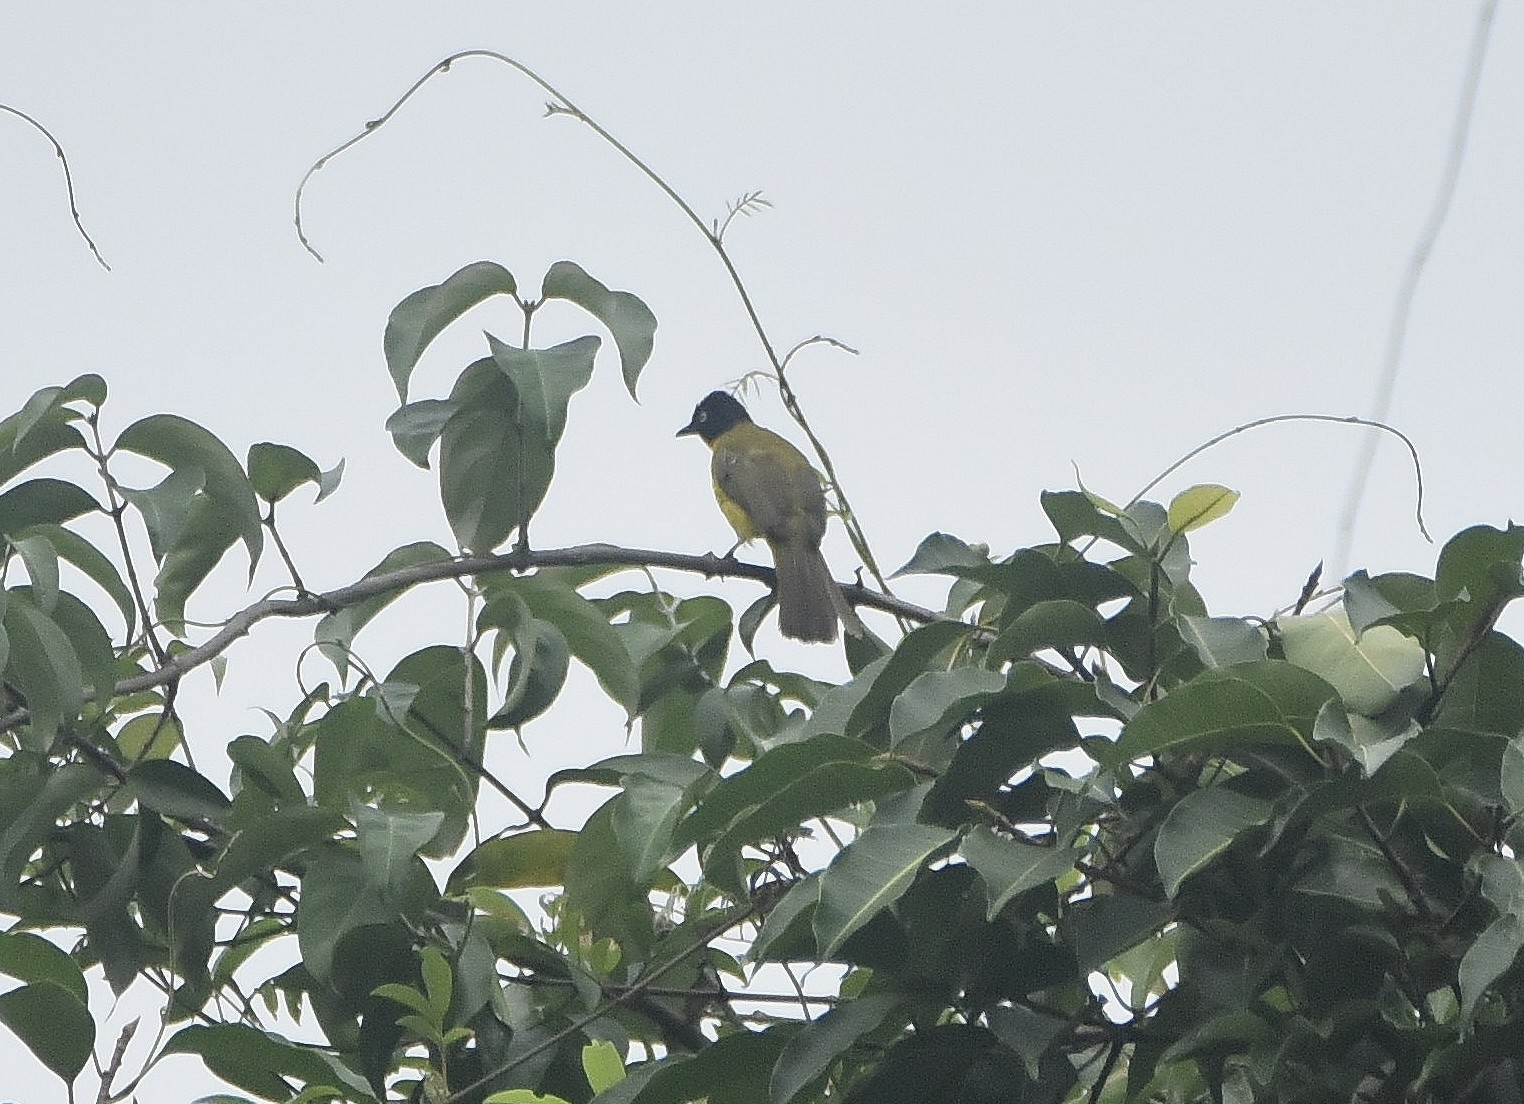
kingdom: Animalia
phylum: Chordata
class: Aves
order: Passeriformes
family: Pycnonotidae
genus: Pycnonotus
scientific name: Pycnonotus gularis
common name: Flame-throated bulbul
